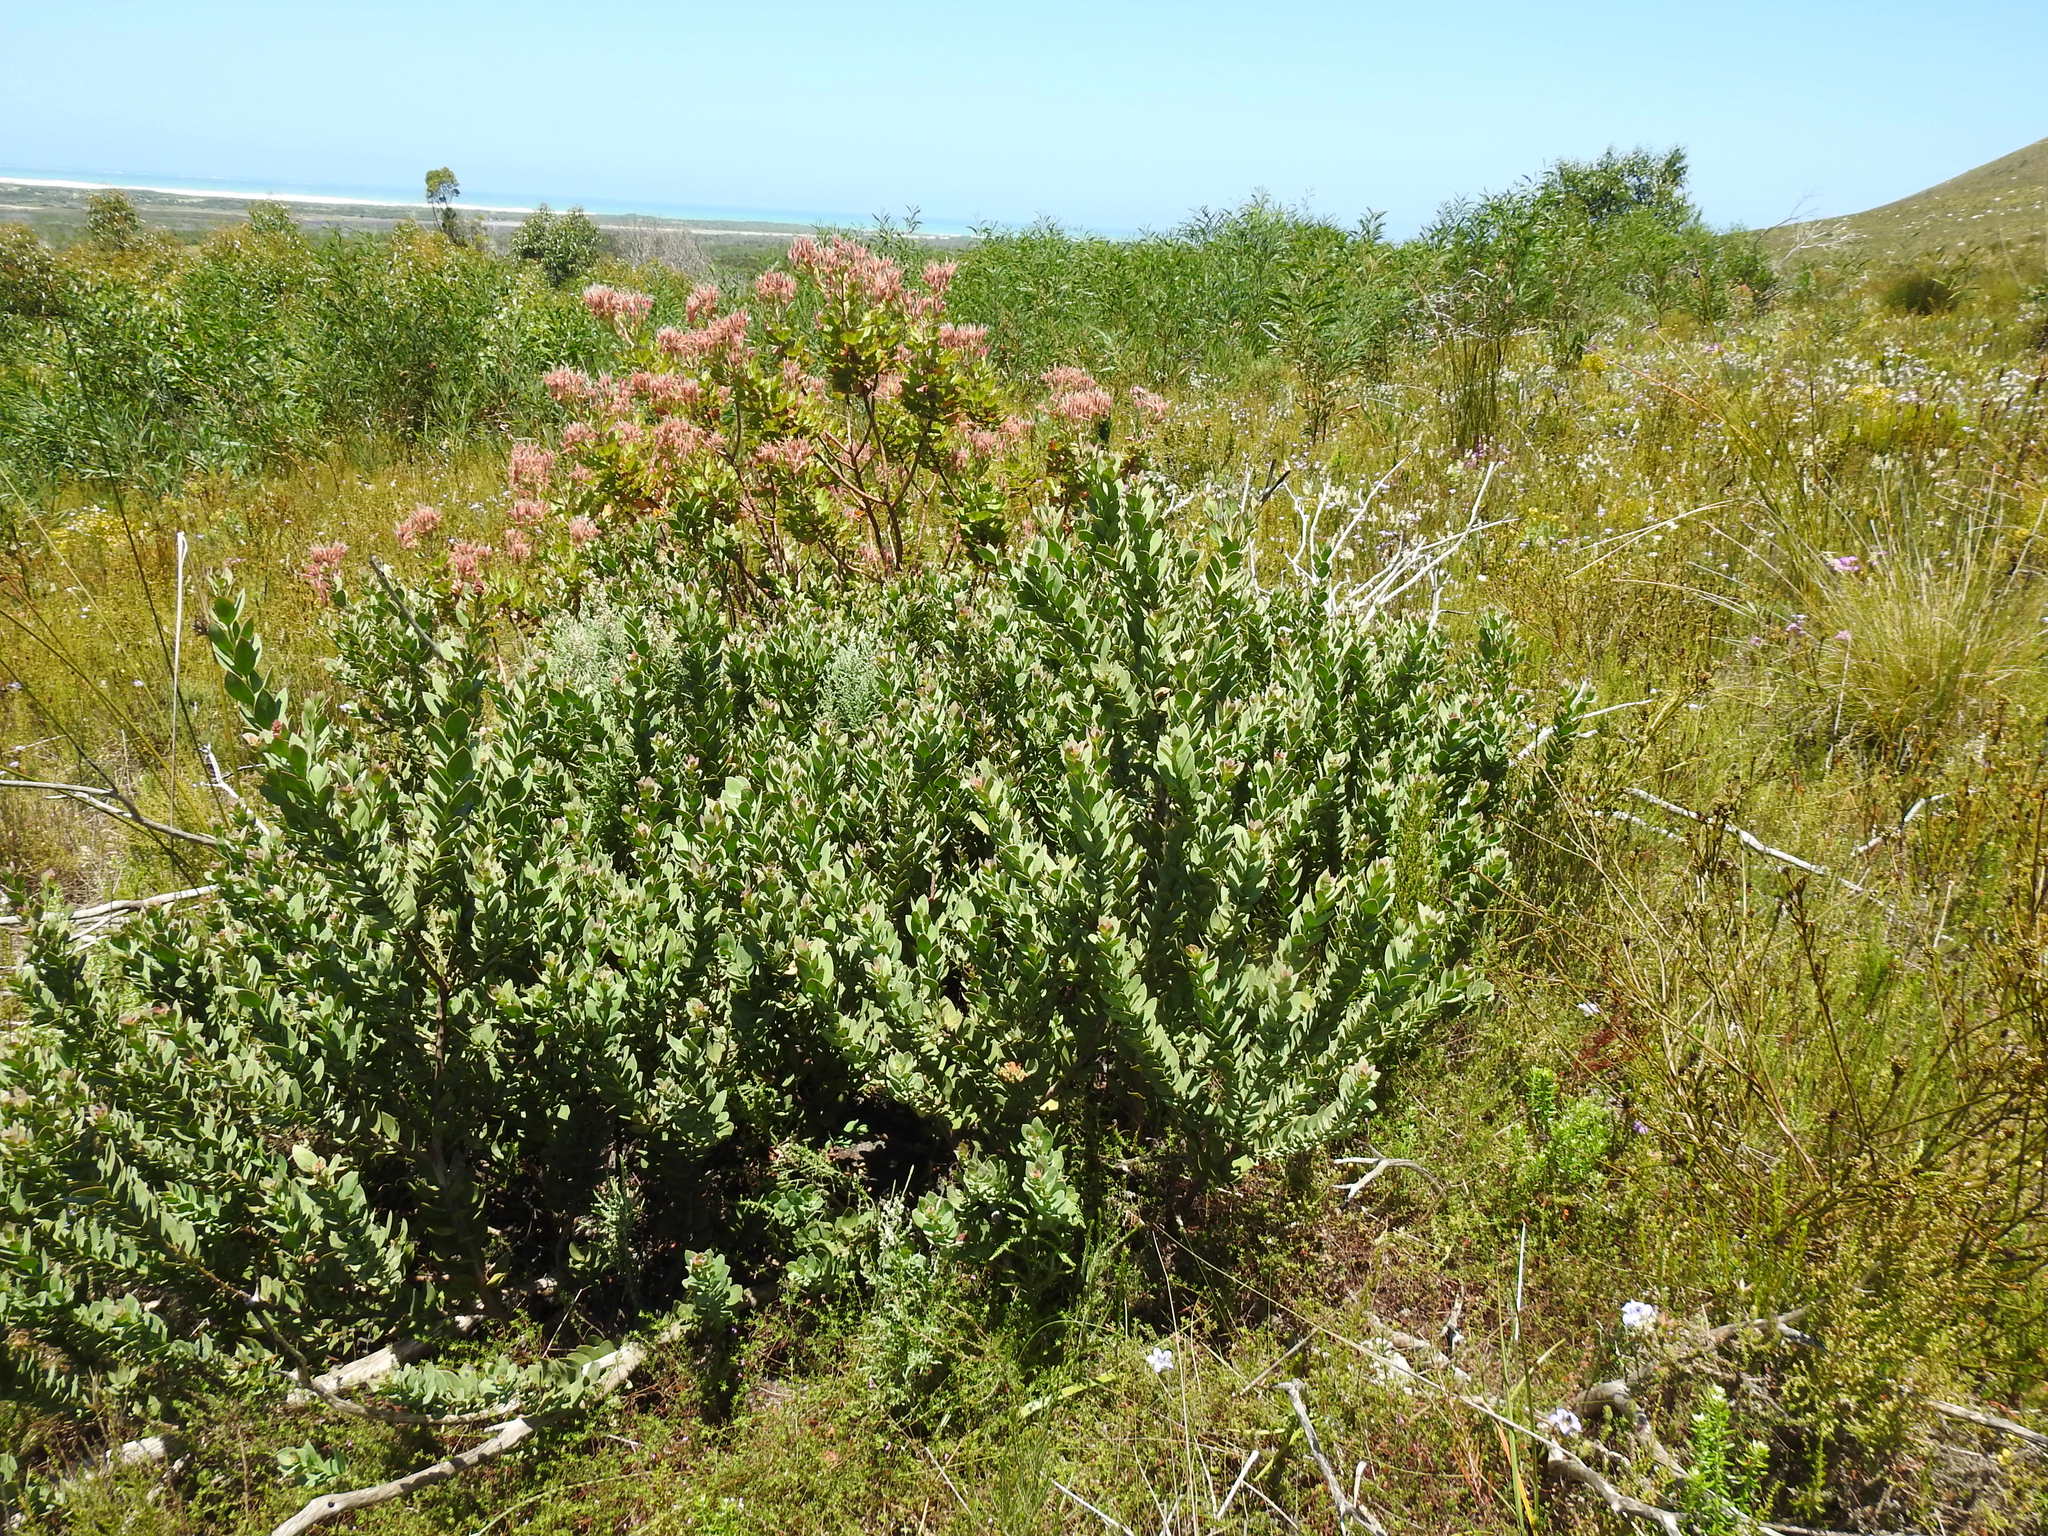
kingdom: Plantae
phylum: Tracheophyta
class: Magnoliopsida
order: Santalales
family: Santalaceae
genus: Osyris
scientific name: Osyris compressa
